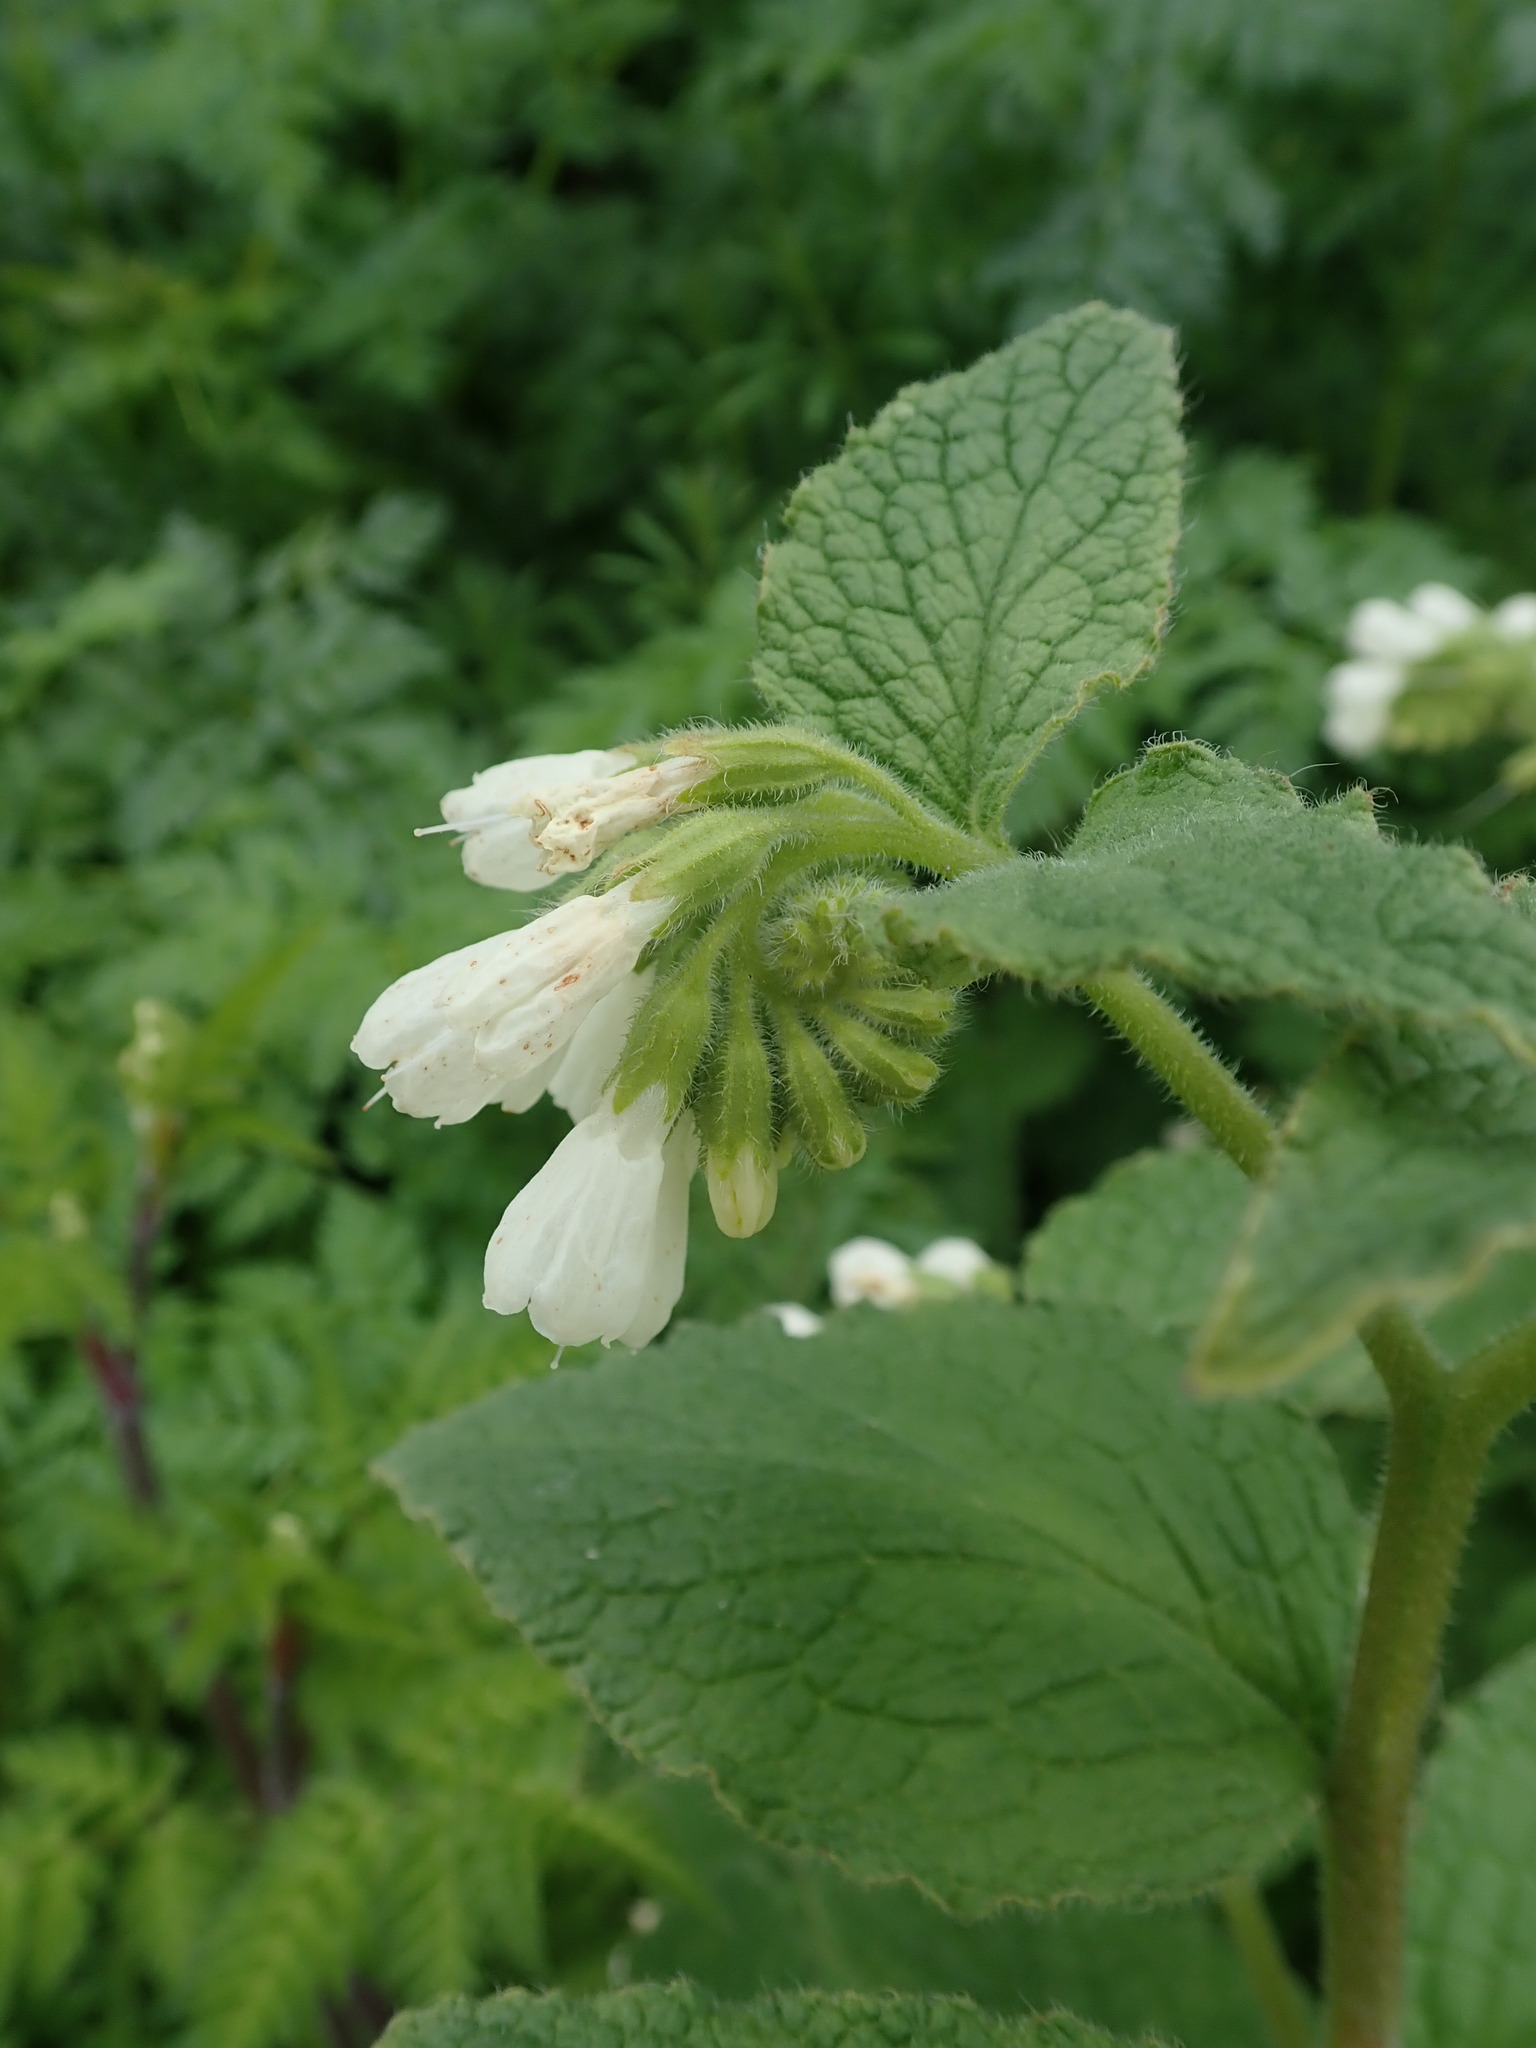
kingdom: Plantae
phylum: Tracheophyta
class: Magnoliopsida
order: Boraginales
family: Boraginaceae
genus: Symphytum
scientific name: Symphytum orientale
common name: White comfrey
